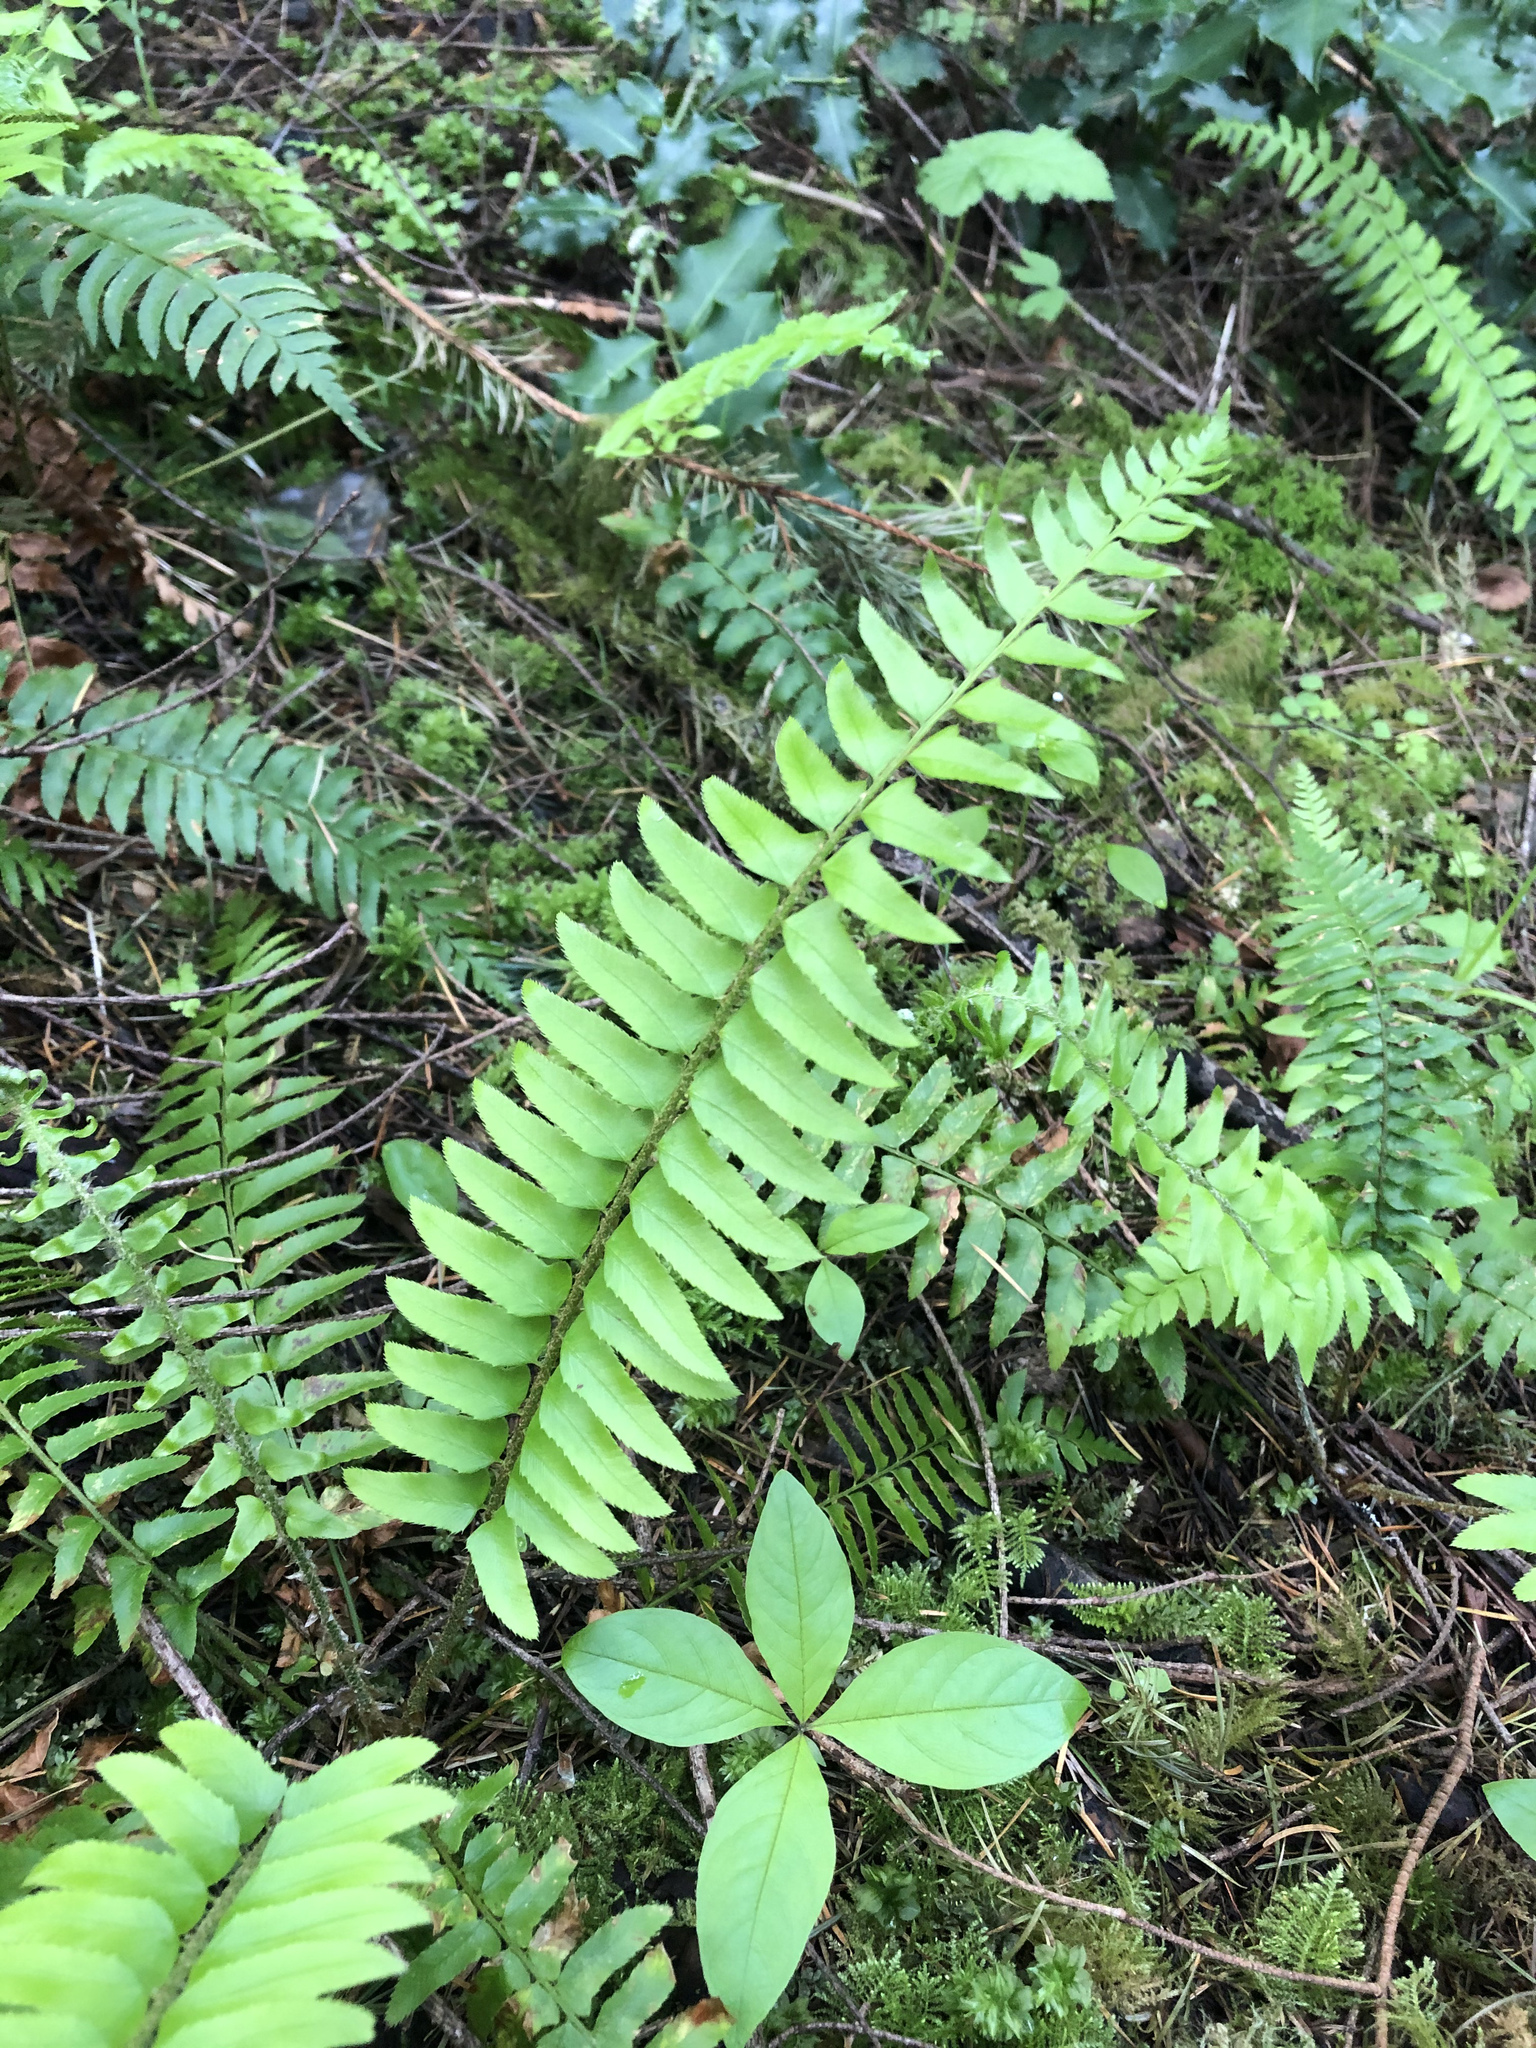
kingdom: Plantae
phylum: Tracheophyta
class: Polypodiopsida
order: Polypodiales
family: Dryopteridaceae
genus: Polystichum
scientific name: Polystichum munitum
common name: Western sword-fern
